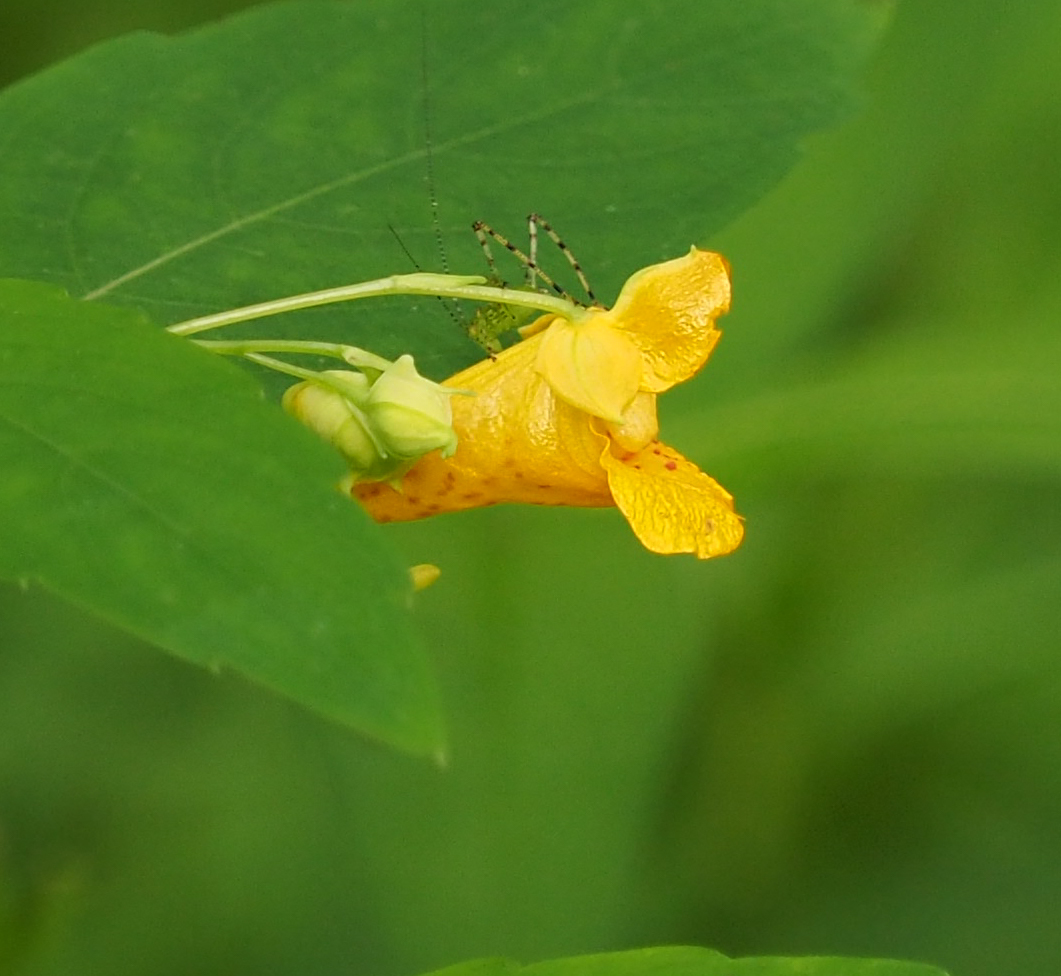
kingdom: Plantae
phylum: Tracheophyta
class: Magnoliopsida
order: Ericales
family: Balsaminaceae
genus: Impatiens
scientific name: Impatiens capensis
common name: Orange balsam
